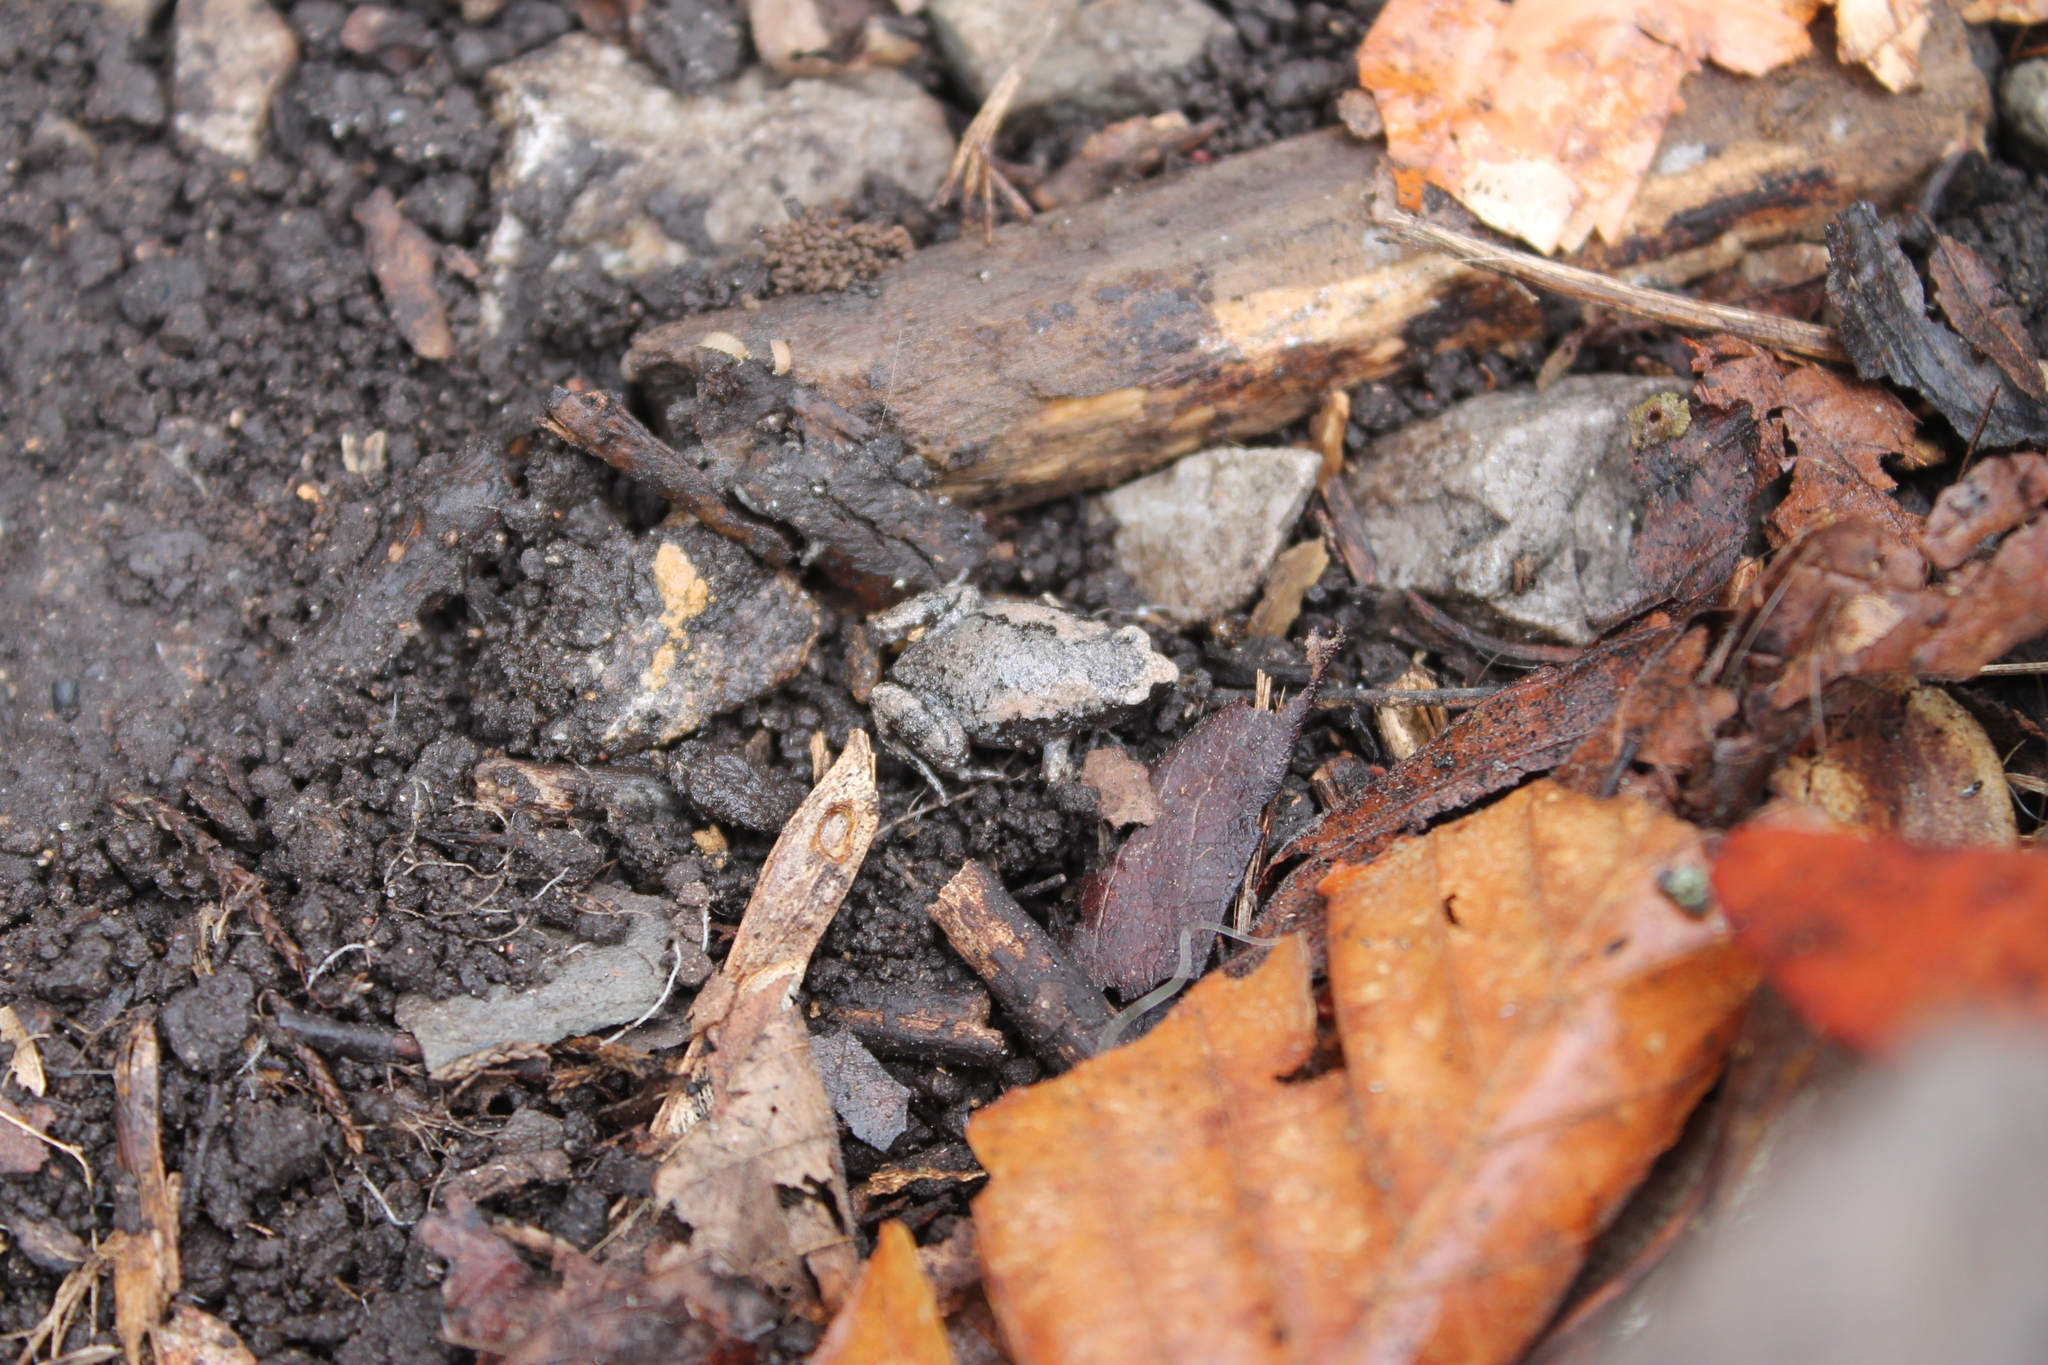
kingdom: Animalia
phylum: Chordata
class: Amphibia
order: Anura
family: Microhylidae
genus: Gastrophryne
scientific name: Gastrophryne carolinensis
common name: Eastern narrowmouth toad
